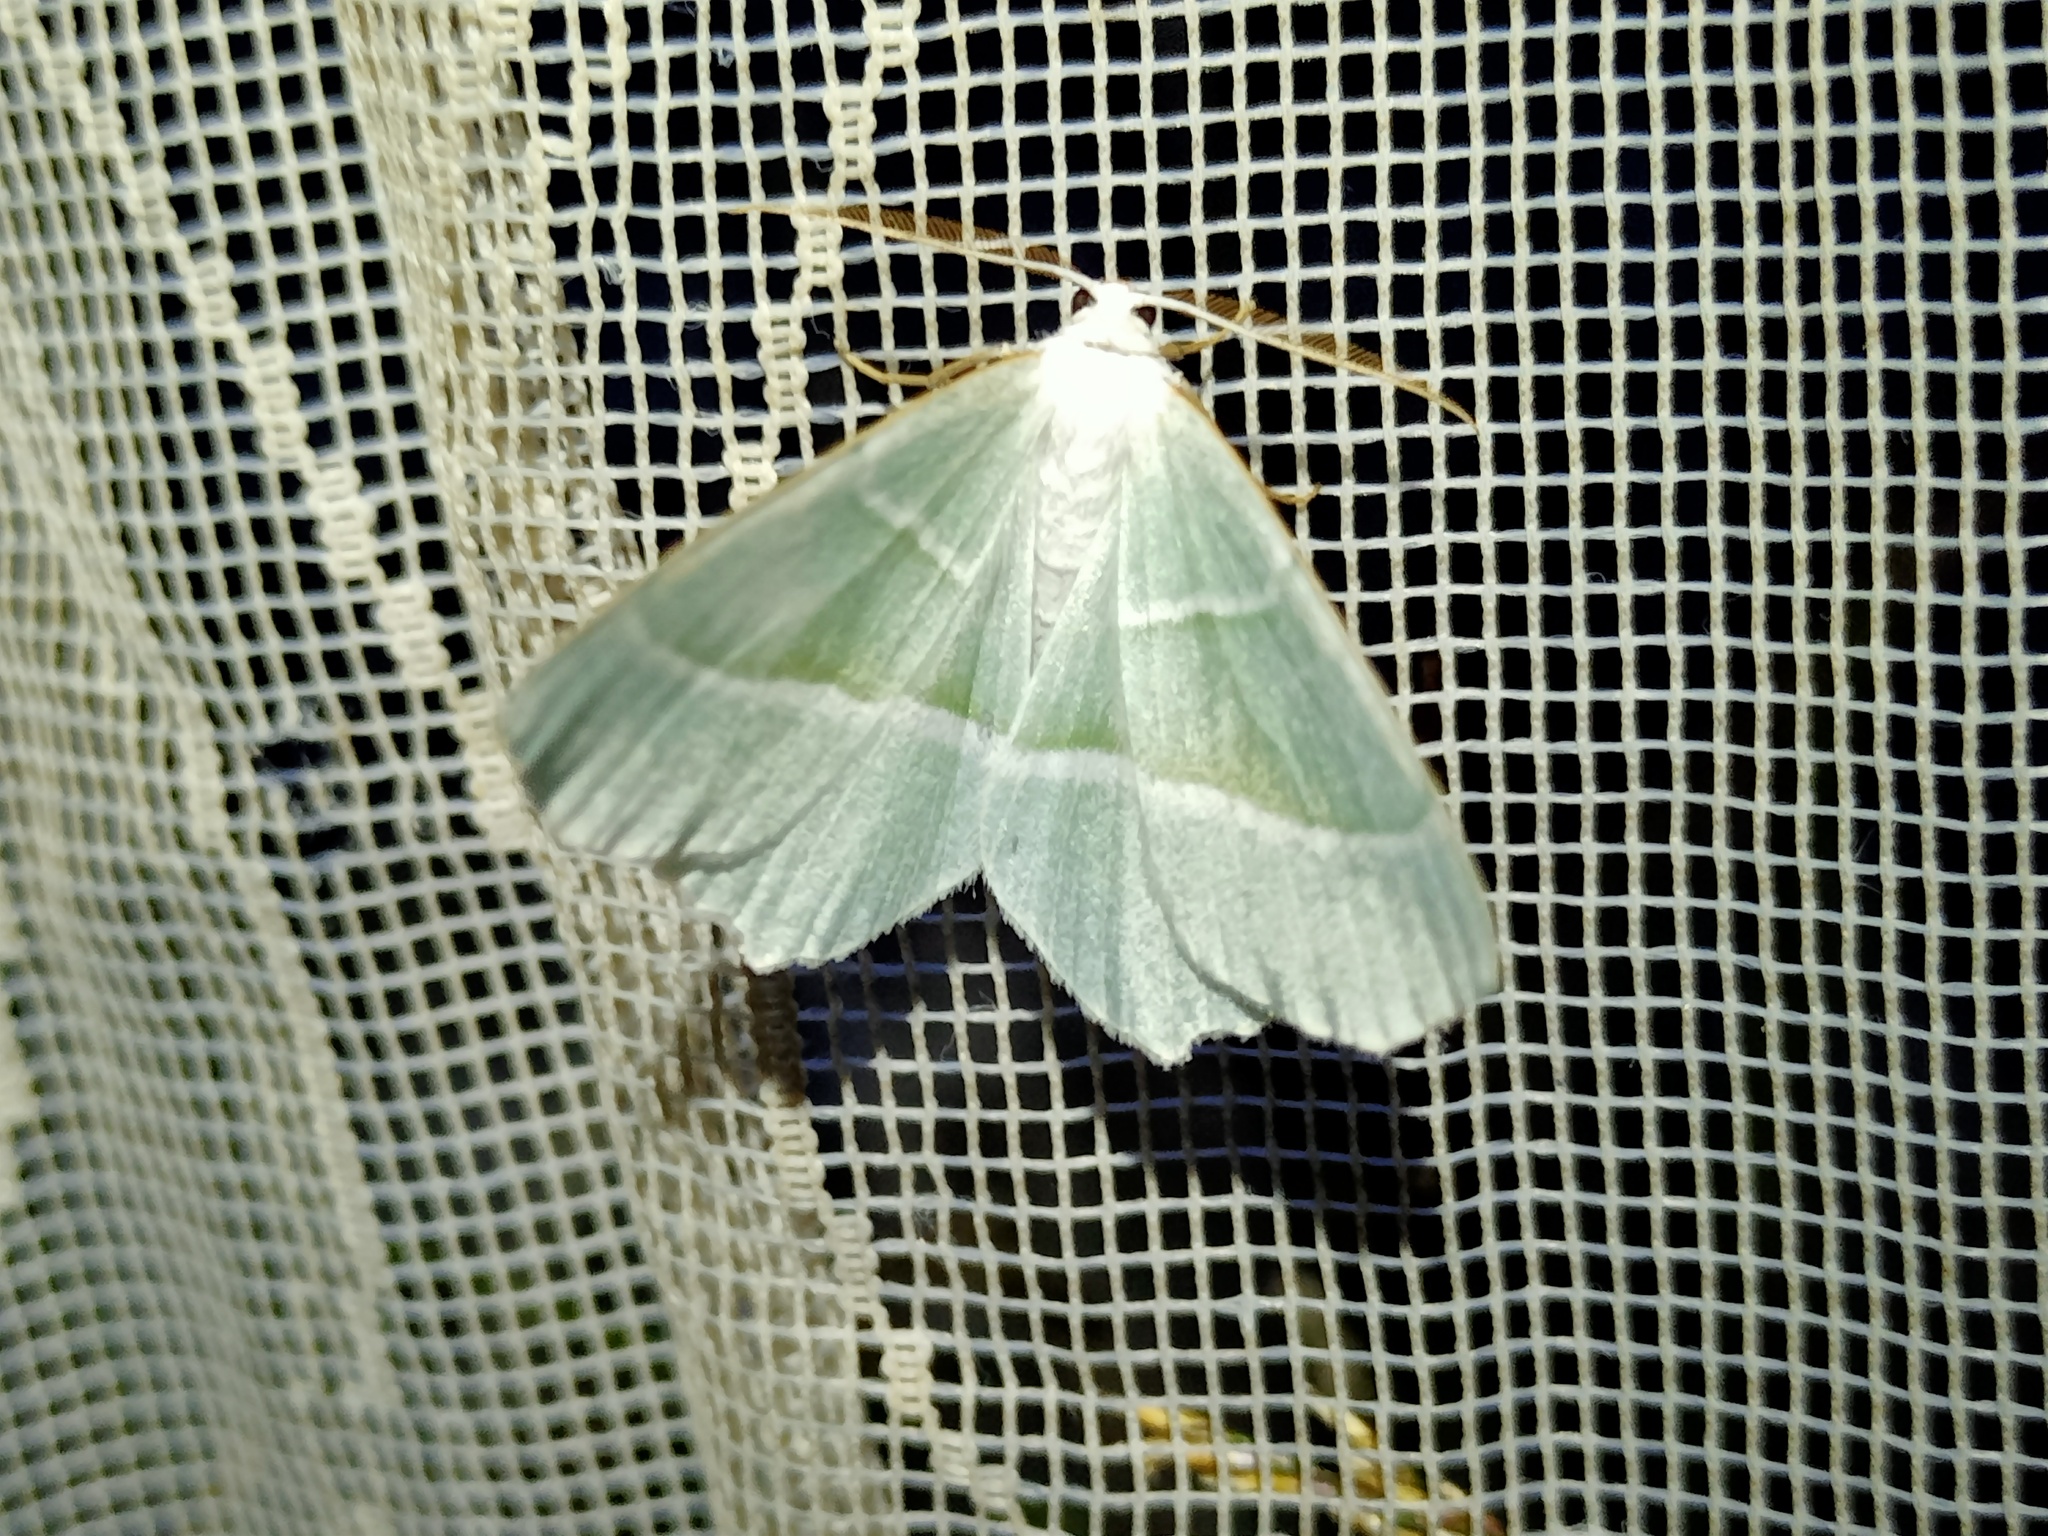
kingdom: Animalia
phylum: Arthropoda
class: Insecta
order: Lepidoptera
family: Geometridae
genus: Campaea
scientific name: Campaea margaritaria
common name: Light emerald
